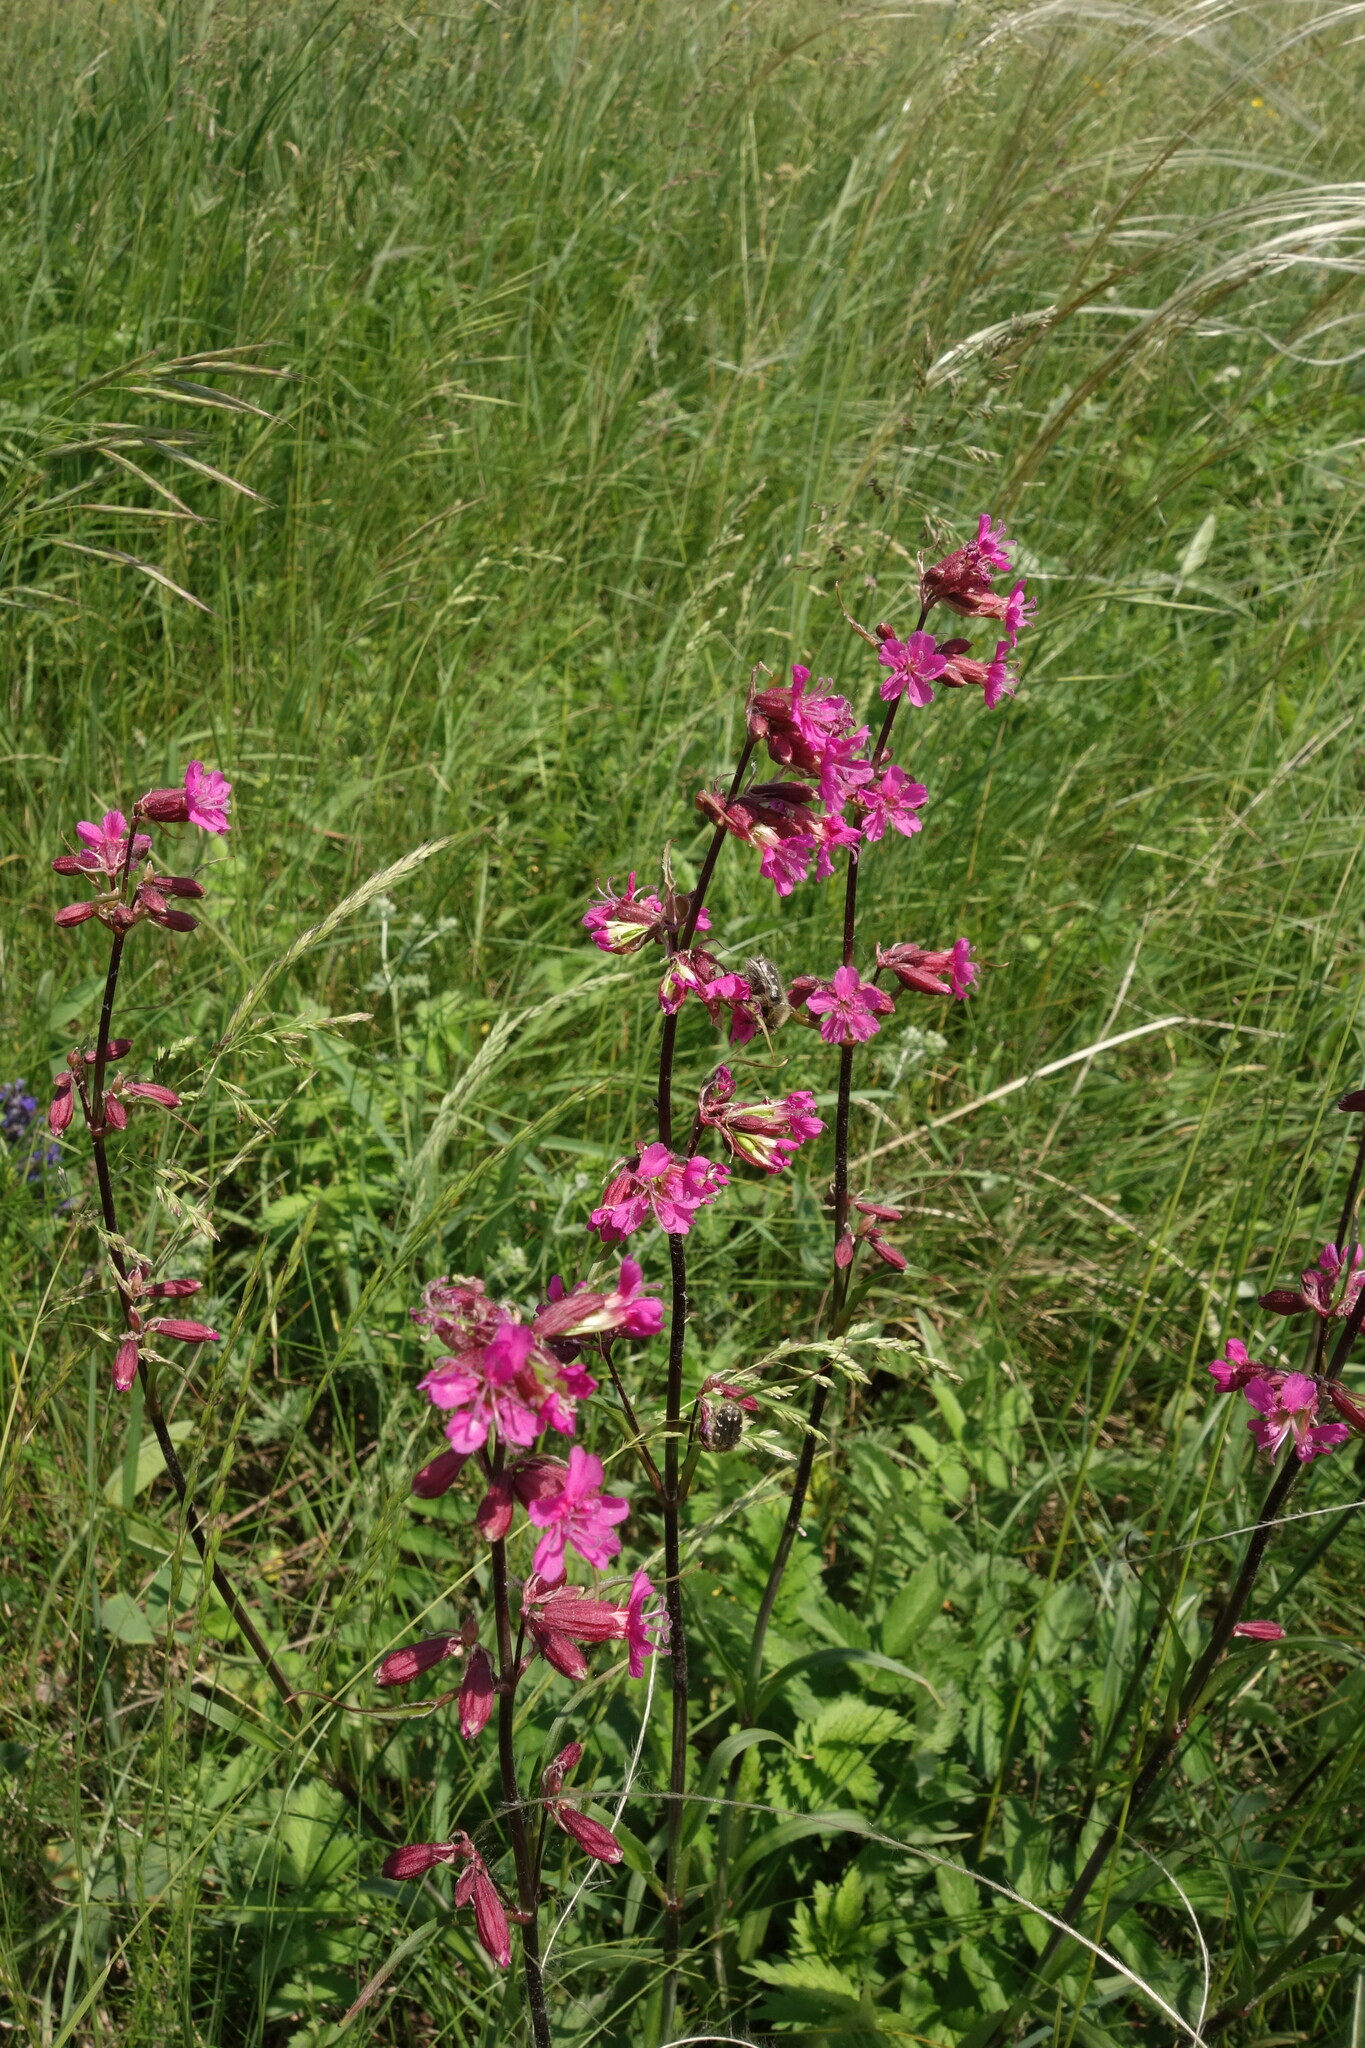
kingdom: Plantae
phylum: Tracheophyta
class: Magnoliopsida
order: Caryophyllales
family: Caryophyllaceae
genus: Viscaria
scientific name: Viscaria vulgaris
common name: Clammy campion
